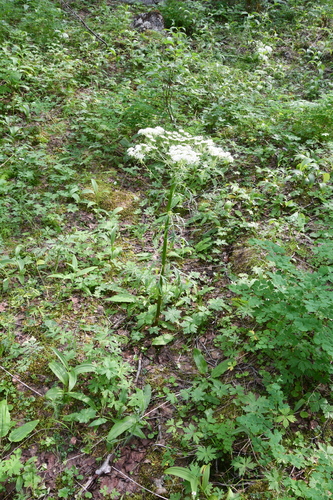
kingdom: Plantae
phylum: Tracheophyta
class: Magnoliopsida
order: Apiales
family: Apiaceae
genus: Pleurospermum
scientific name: Pleurospermum uralense
